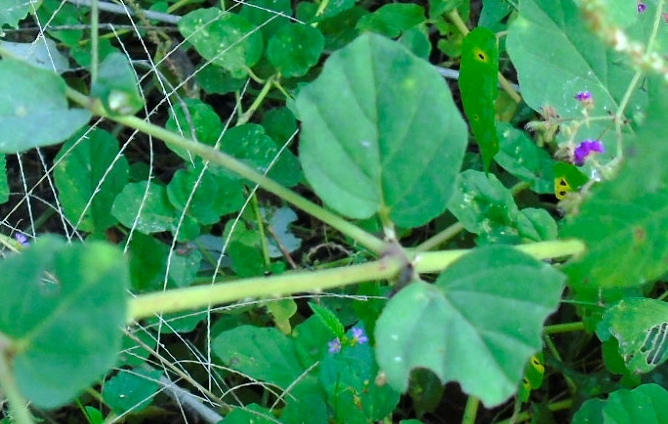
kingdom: Plantae
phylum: Tracheophyta
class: Magnoliopsida
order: Caryophyllales
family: Nyctaginaceae
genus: Boerhavia
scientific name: Boerhavia coccinea
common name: Scarlet spiderling
